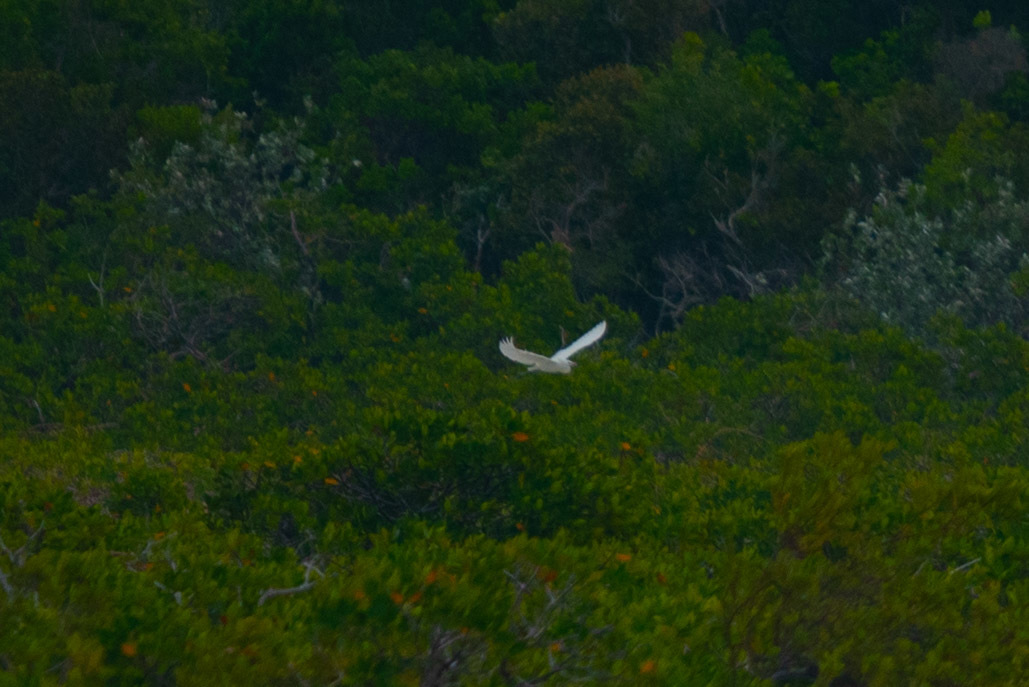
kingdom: Animalia
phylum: Chordata
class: Aves
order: Pelecaniformes
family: Ardeidae
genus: Egretta
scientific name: Egretta rufescens
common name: Reddish egret
